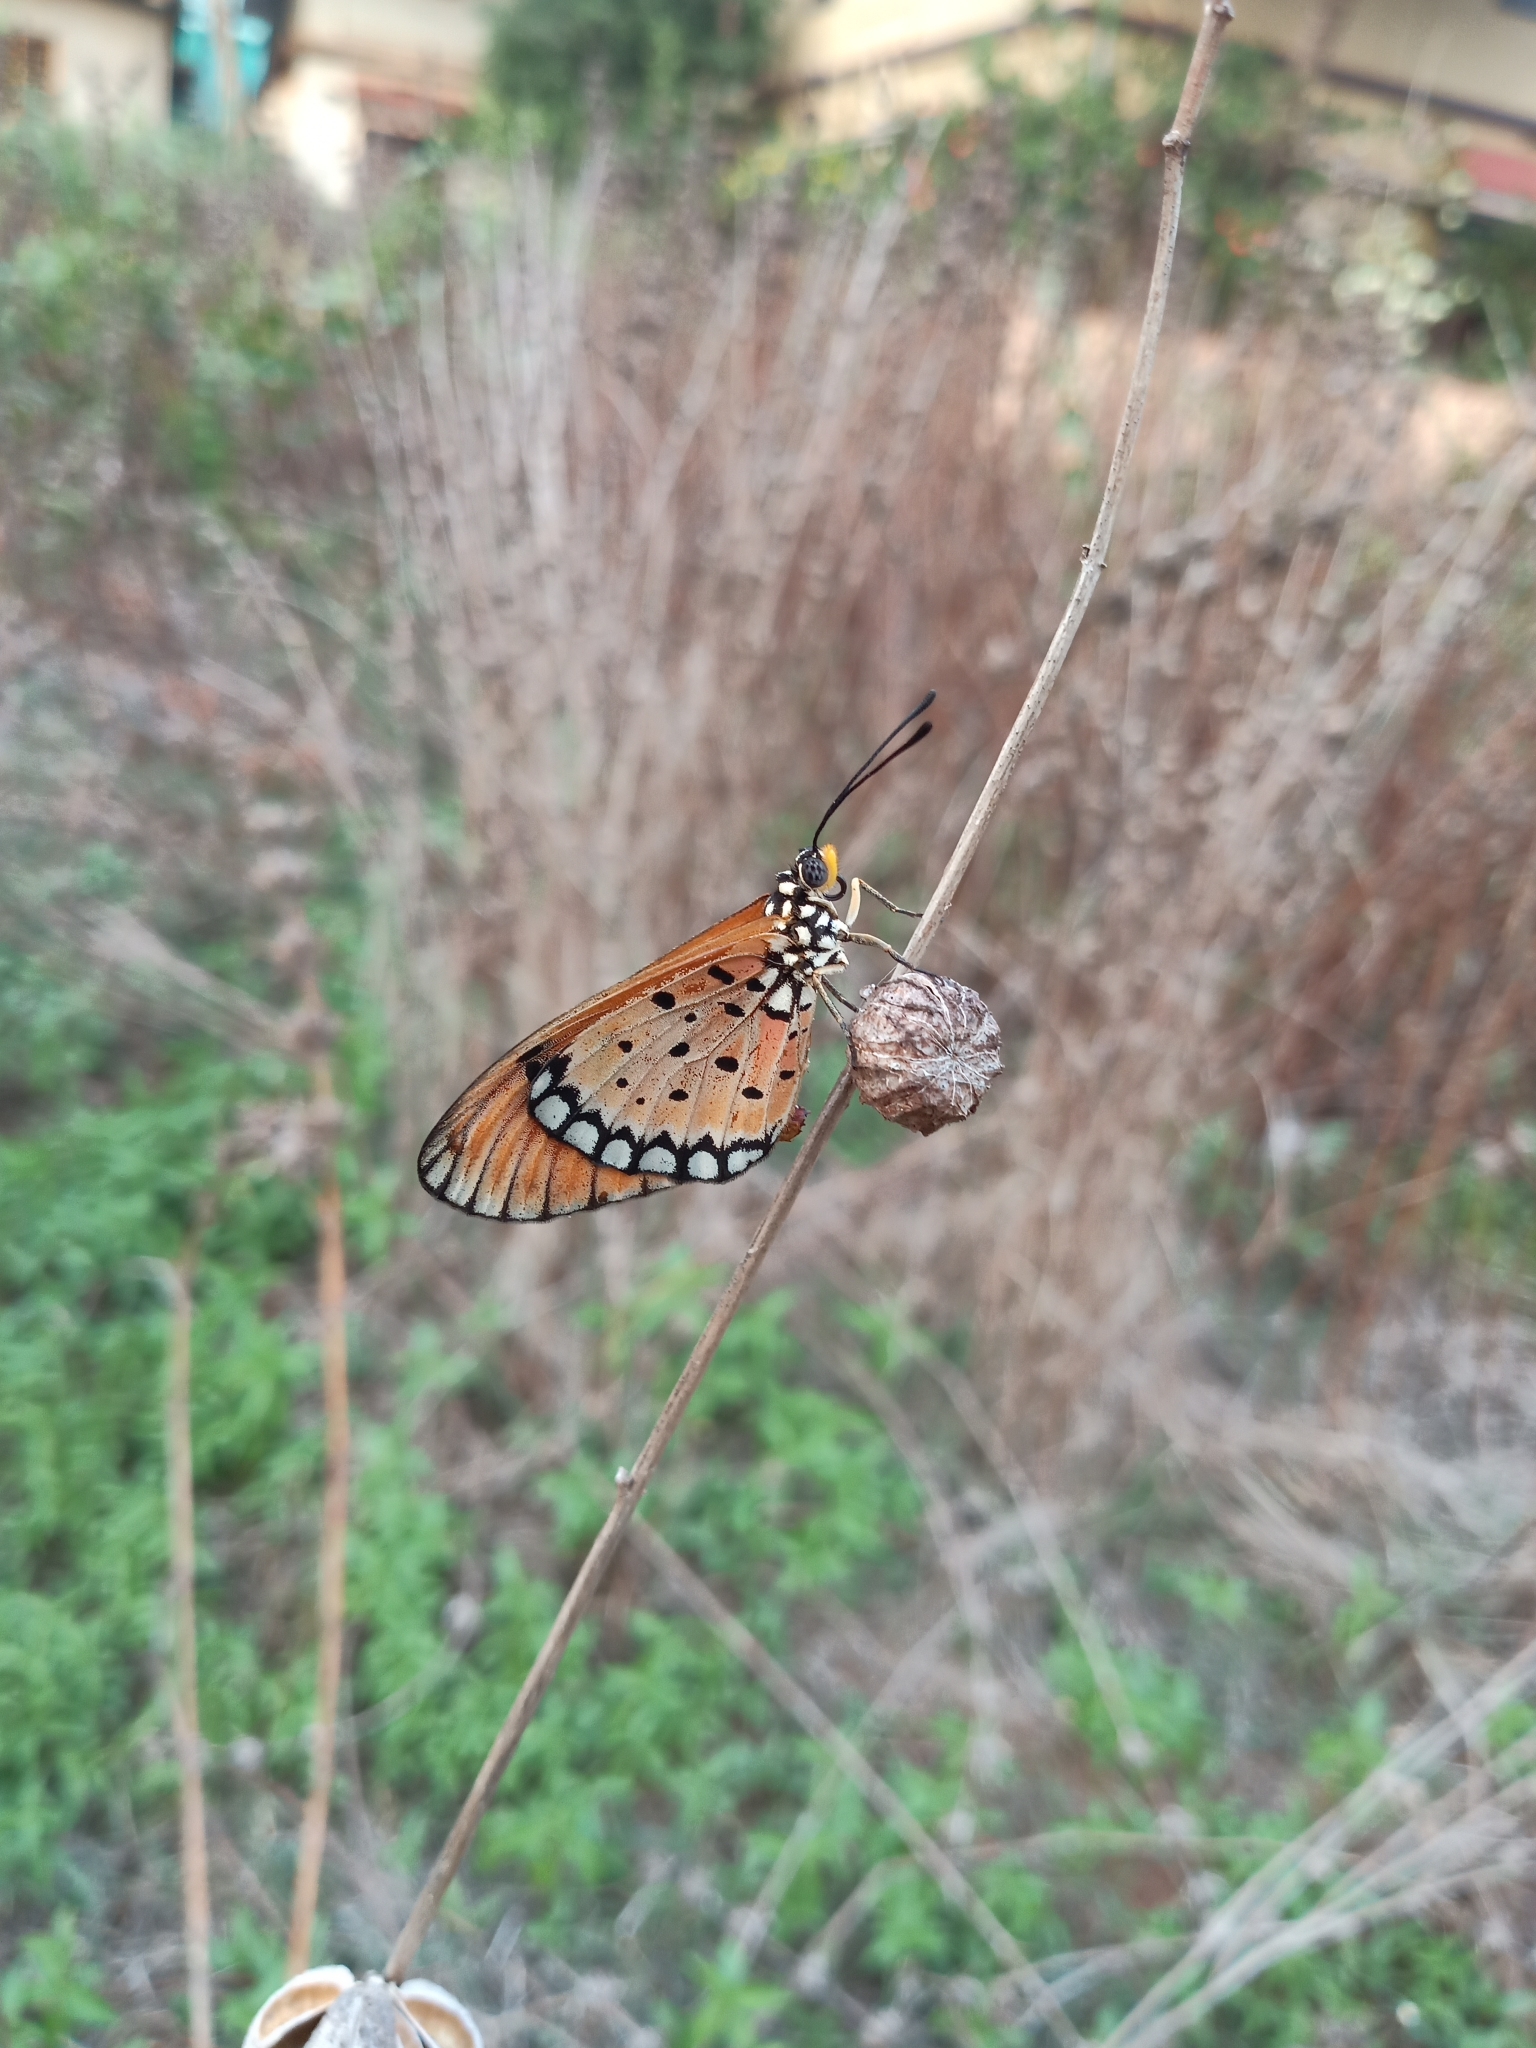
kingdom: Animalia
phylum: Arthropoda
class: Insecta
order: Lepidoptera
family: Nymphalidae
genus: Acraea
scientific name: Acraea terpsicore
